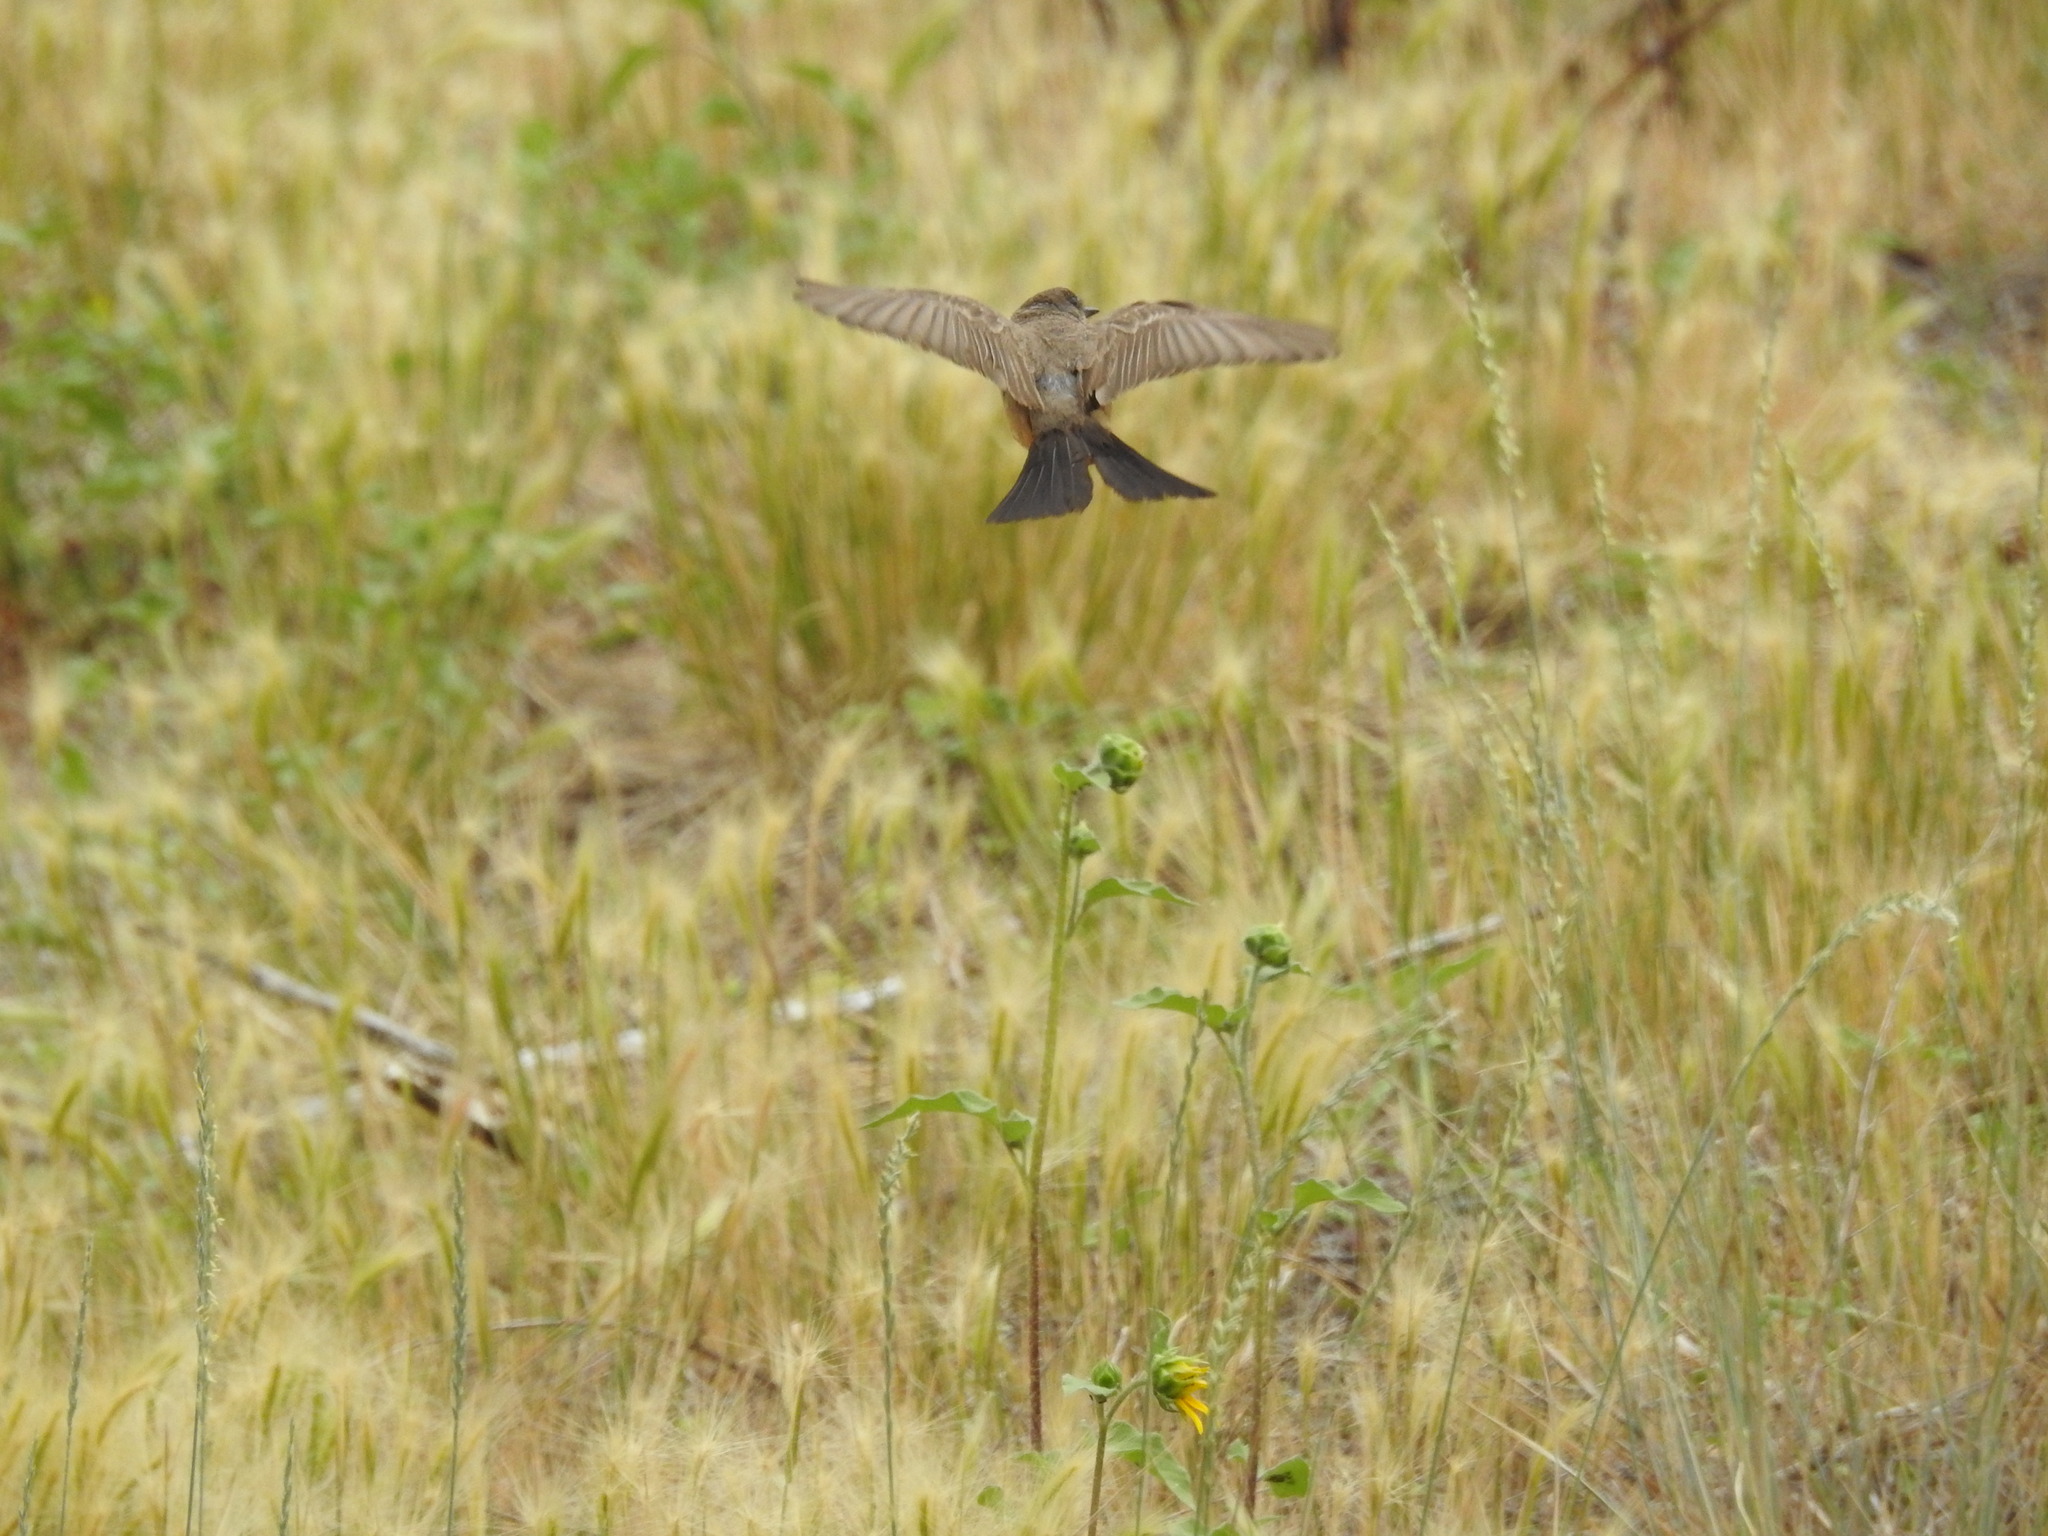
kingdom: Animalia
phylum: Chordata
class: Aves
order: Passeriformes
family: Tyrannidae
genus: Sayornis
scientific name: Sayornis saya
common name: Say's phoebe
